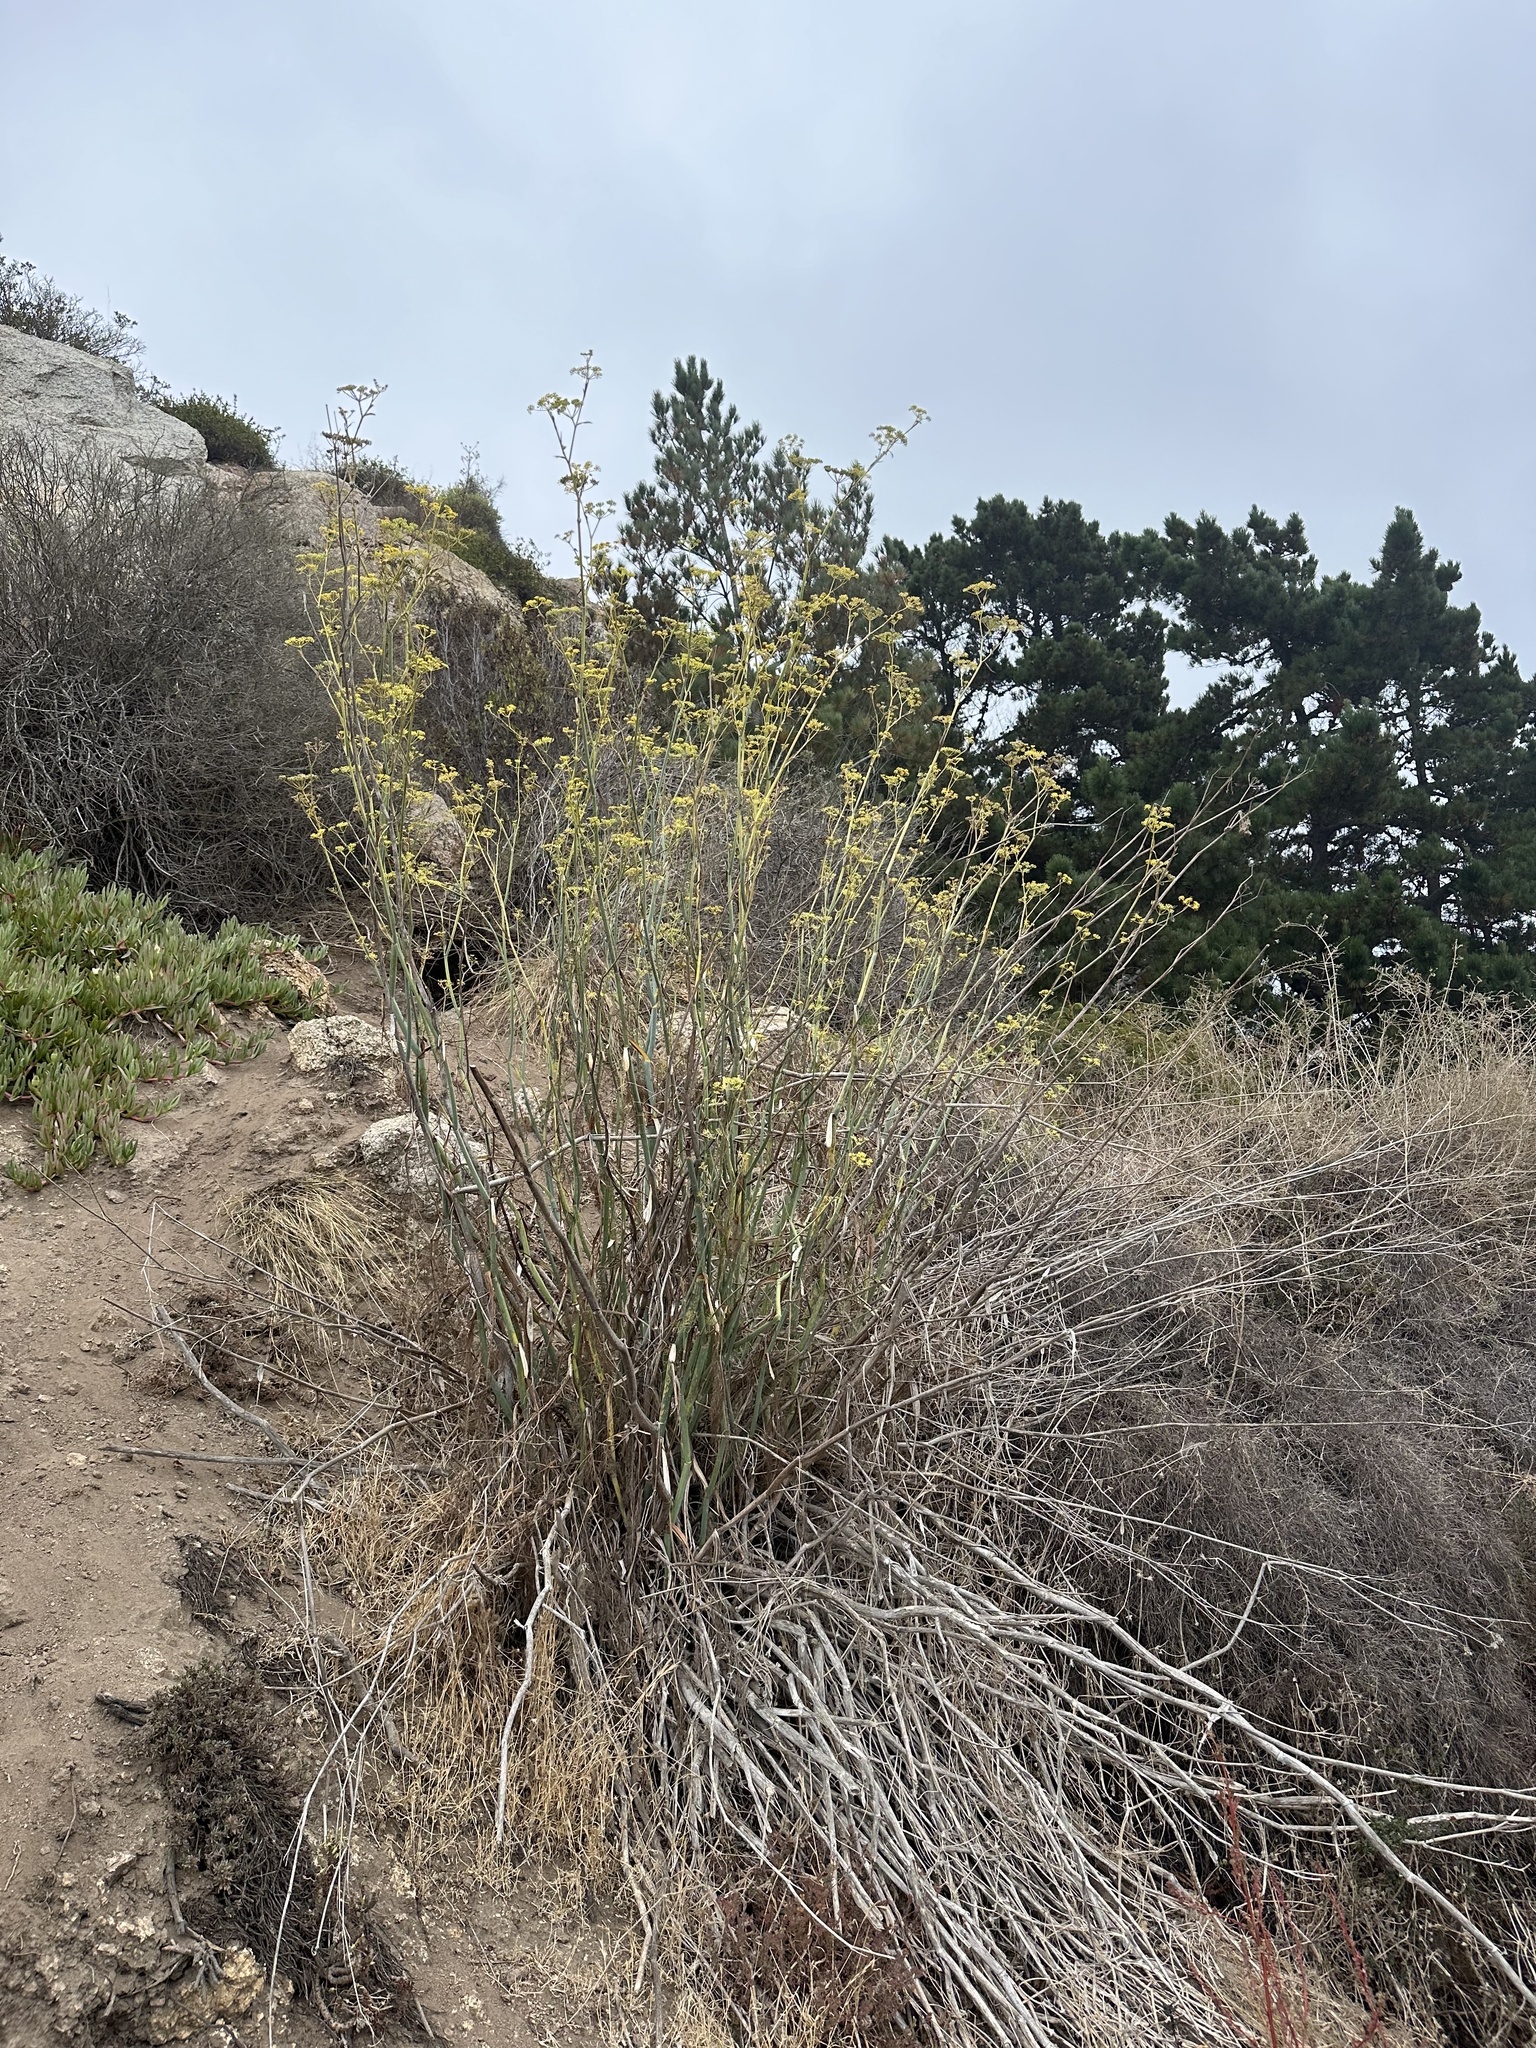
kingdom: Plantae
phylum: Tracheophyta
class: Magnoliopsida
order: Apiales
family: Apiaceae
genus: Foeniculum
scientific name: Foeniculum vulgare
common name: Fennel
